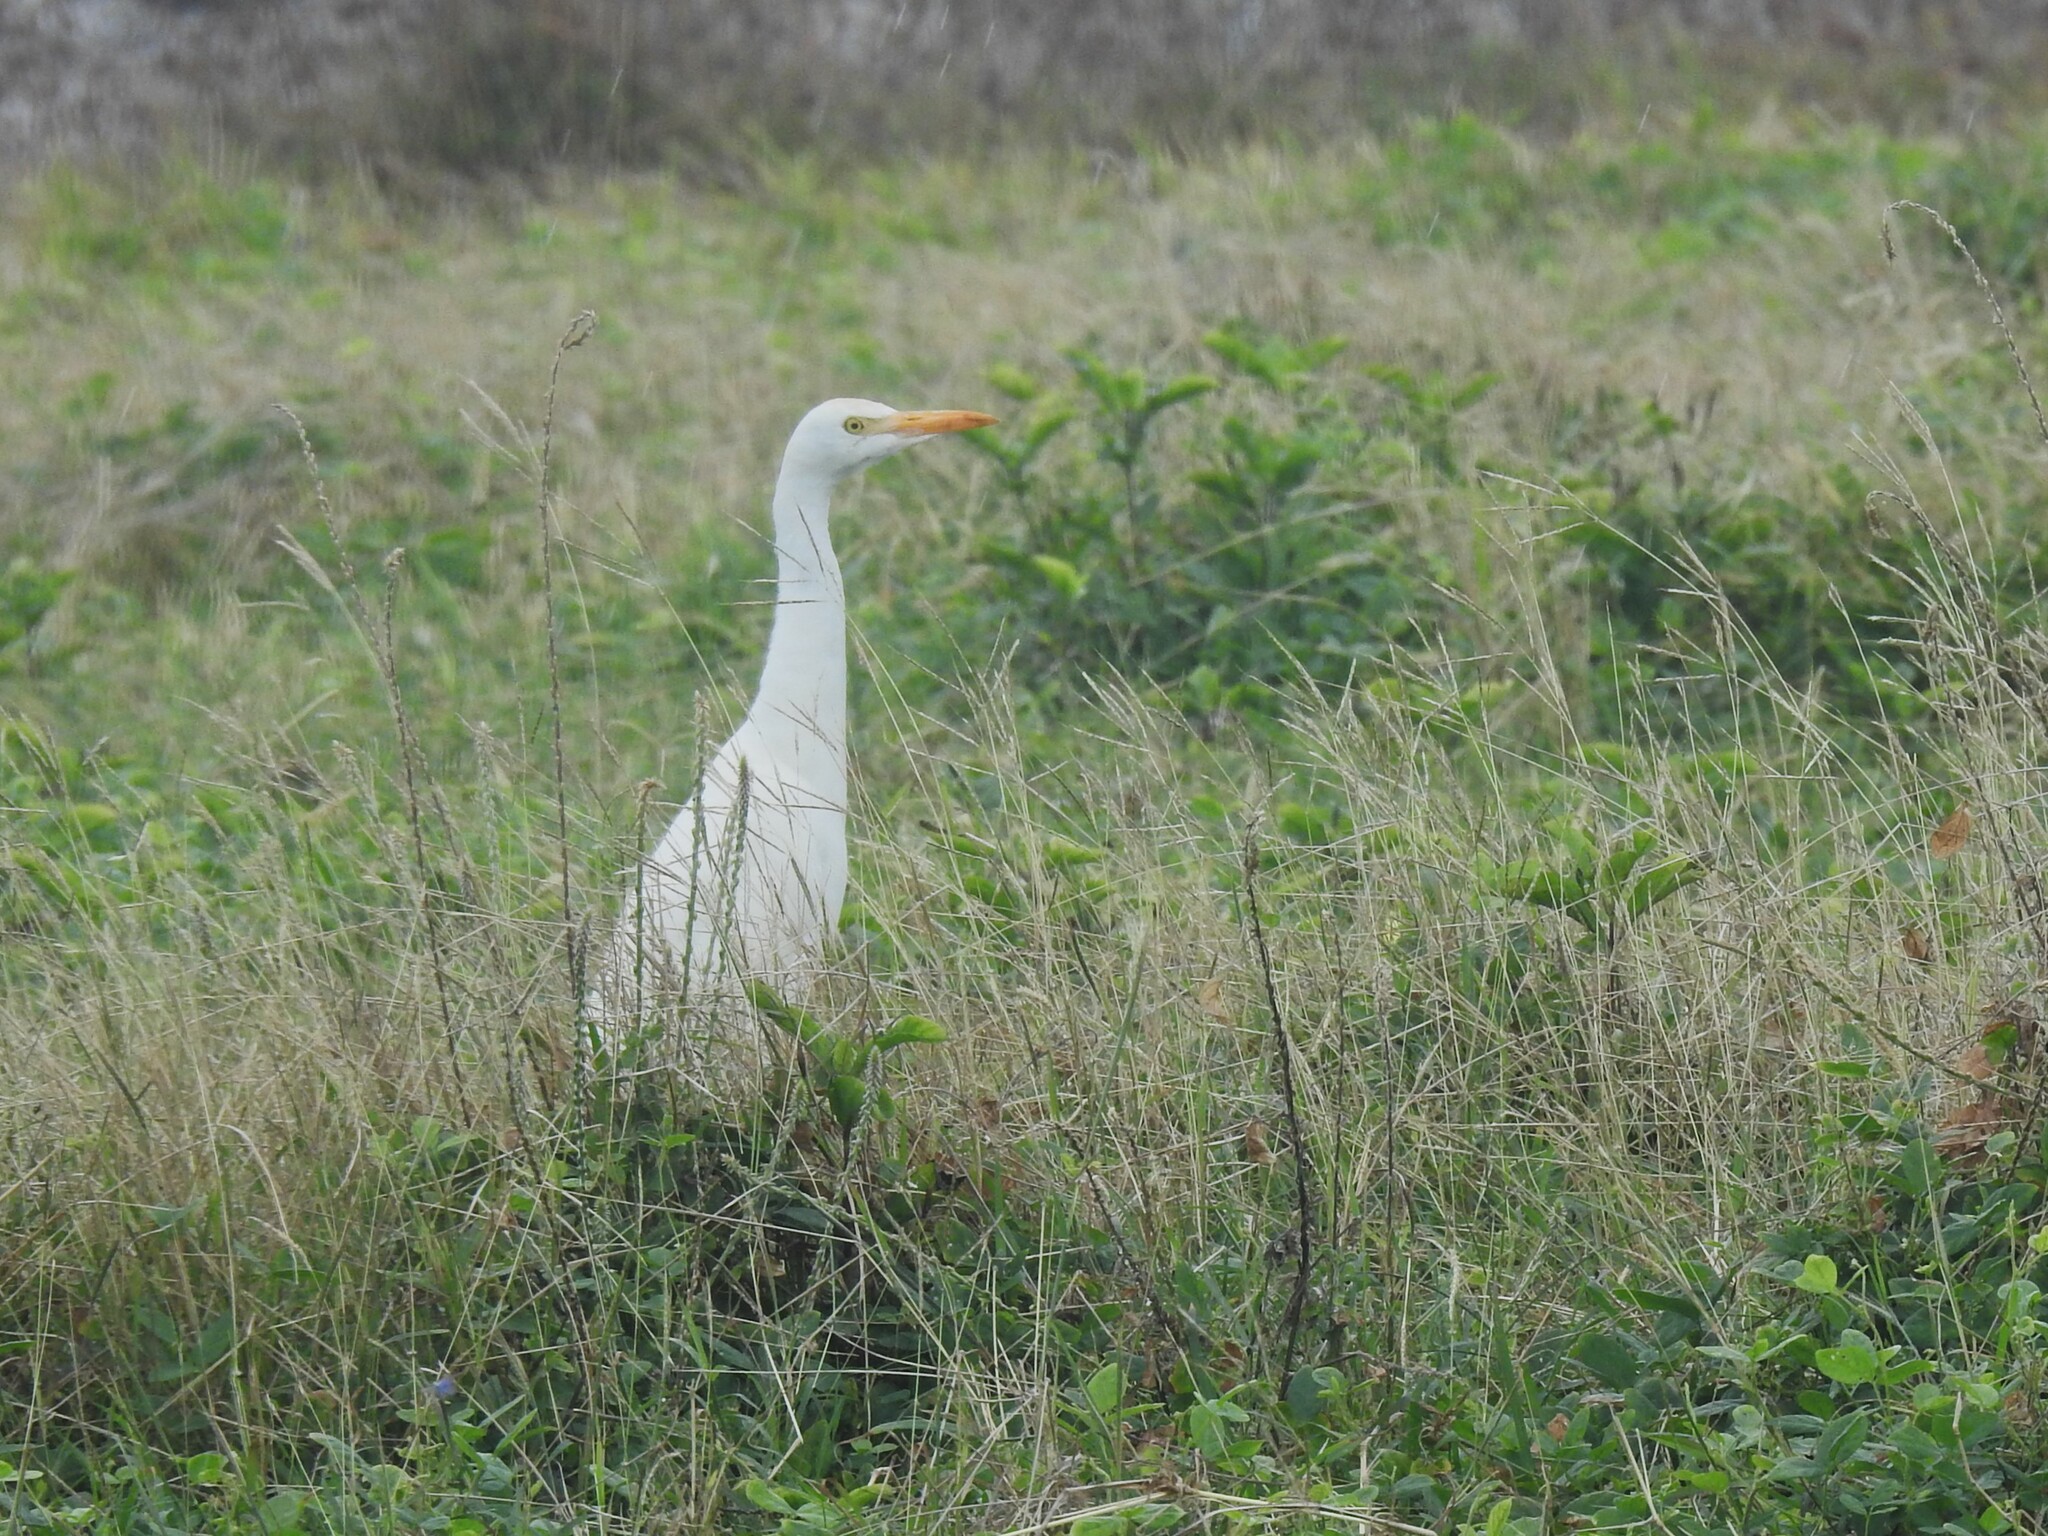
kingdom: Animalia
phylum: Chordata
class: Aves
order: Pelecaniformes
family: Ardeidae
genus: Bubulcus
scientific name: Bubulcus ibis
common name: Cattle egret
